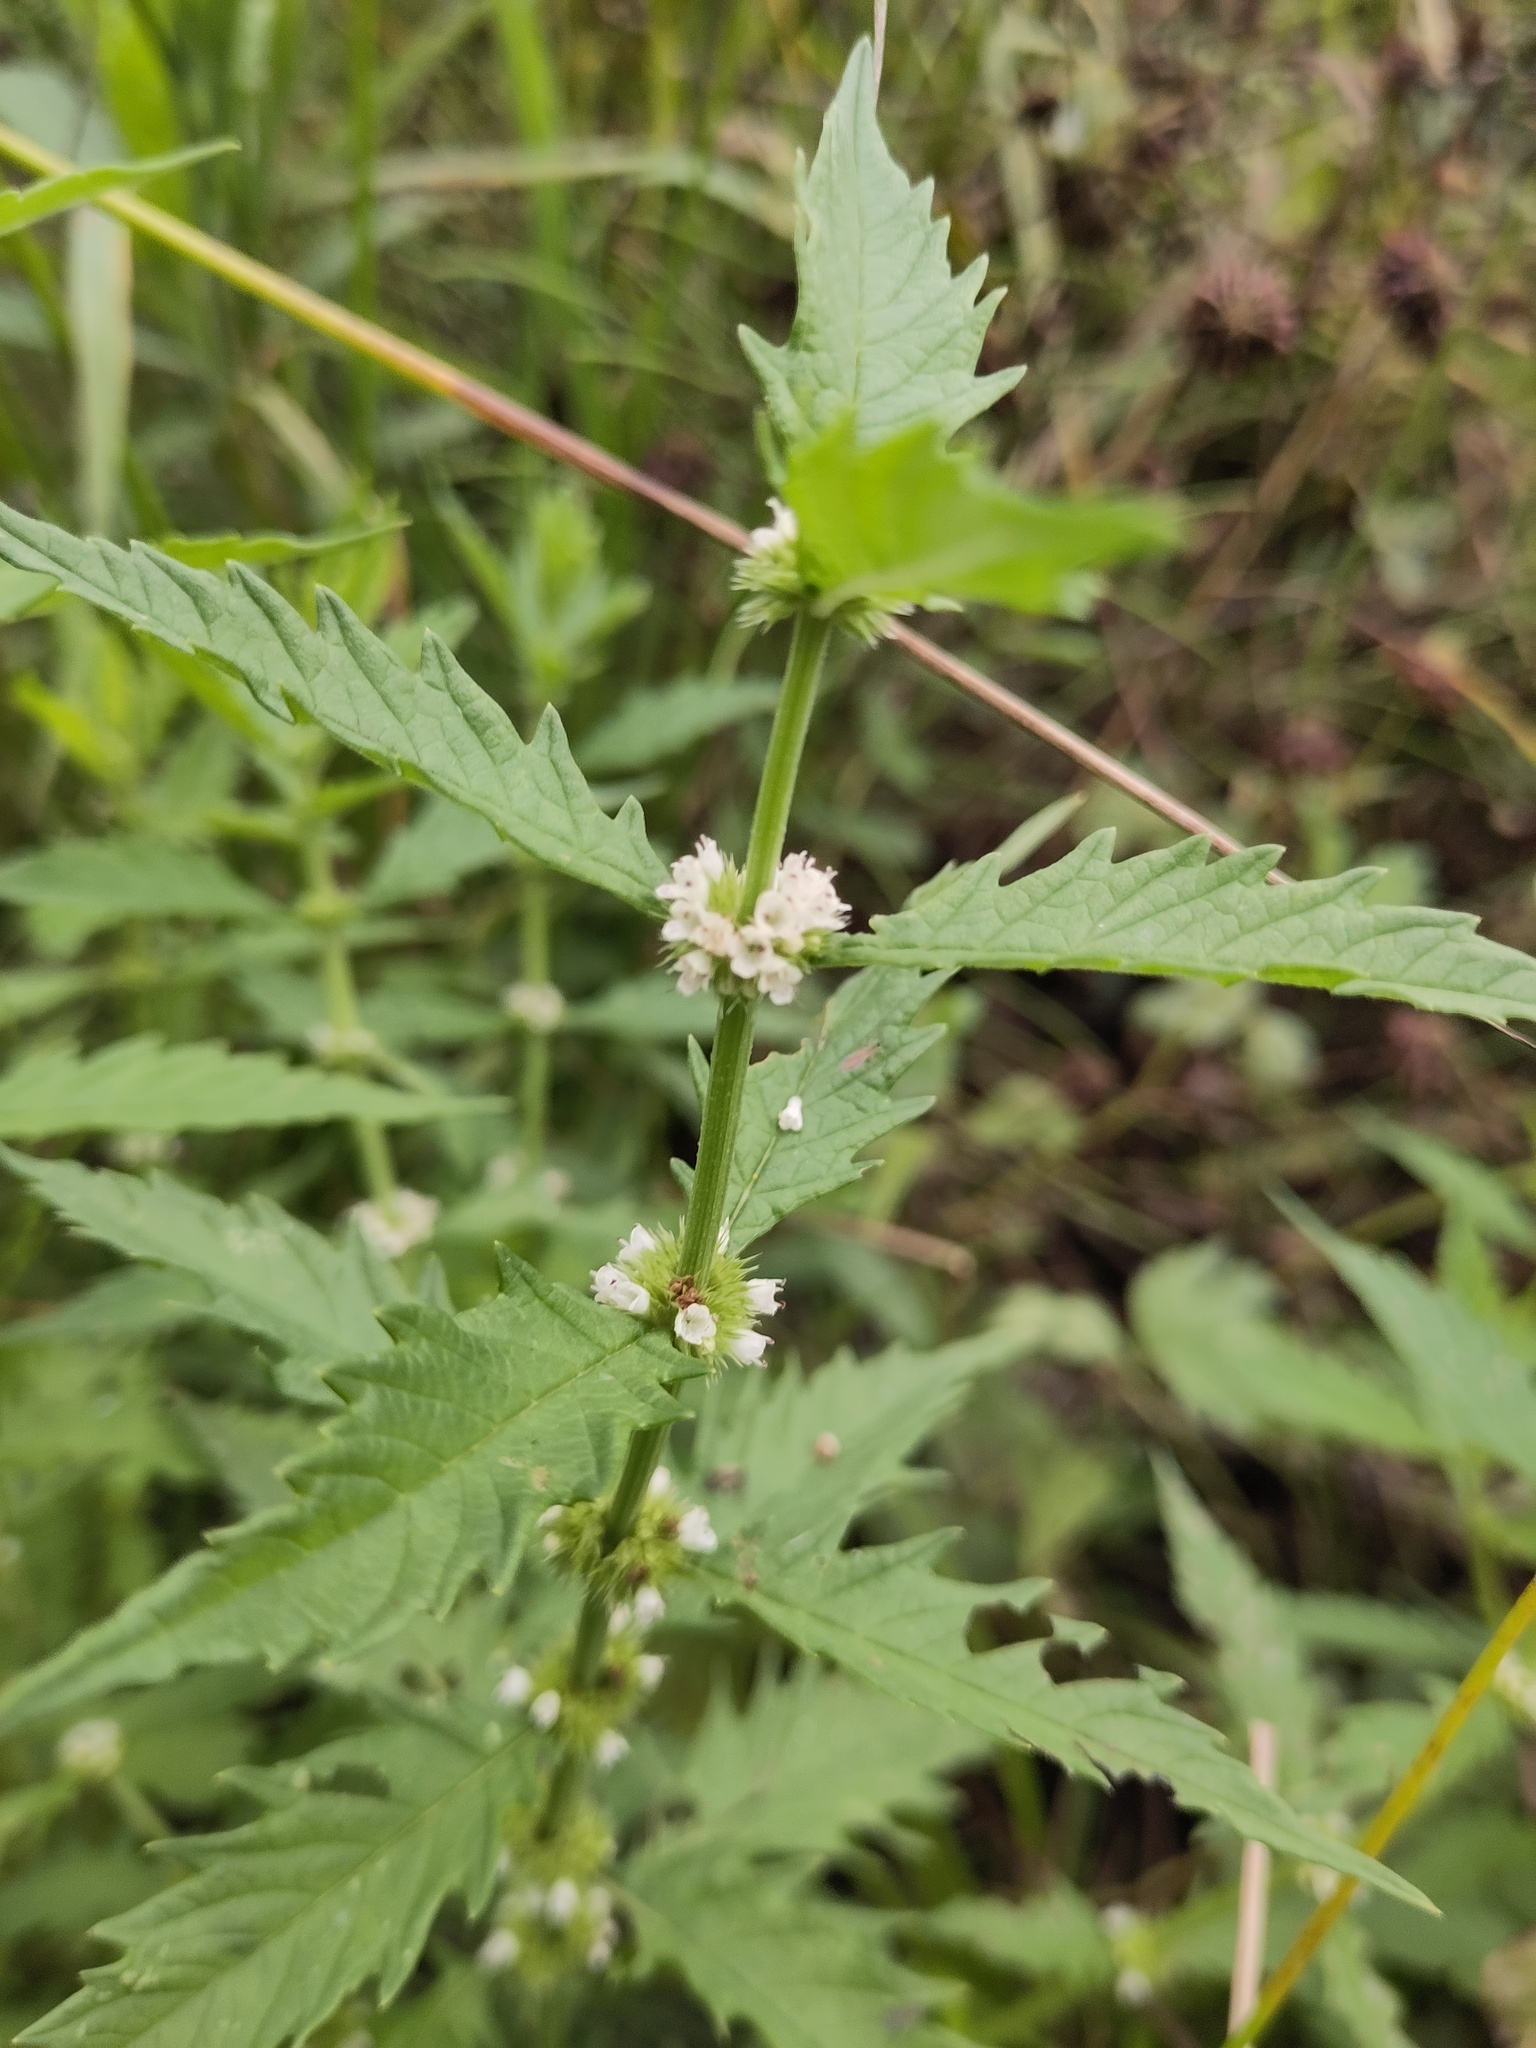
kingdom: Plantae
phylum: Tracheophyta
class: Magnoliopsida
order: Lamiales
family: Lamiaceae
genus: Lycopus
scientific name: Lycopus europaeus
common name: European bugleweed
